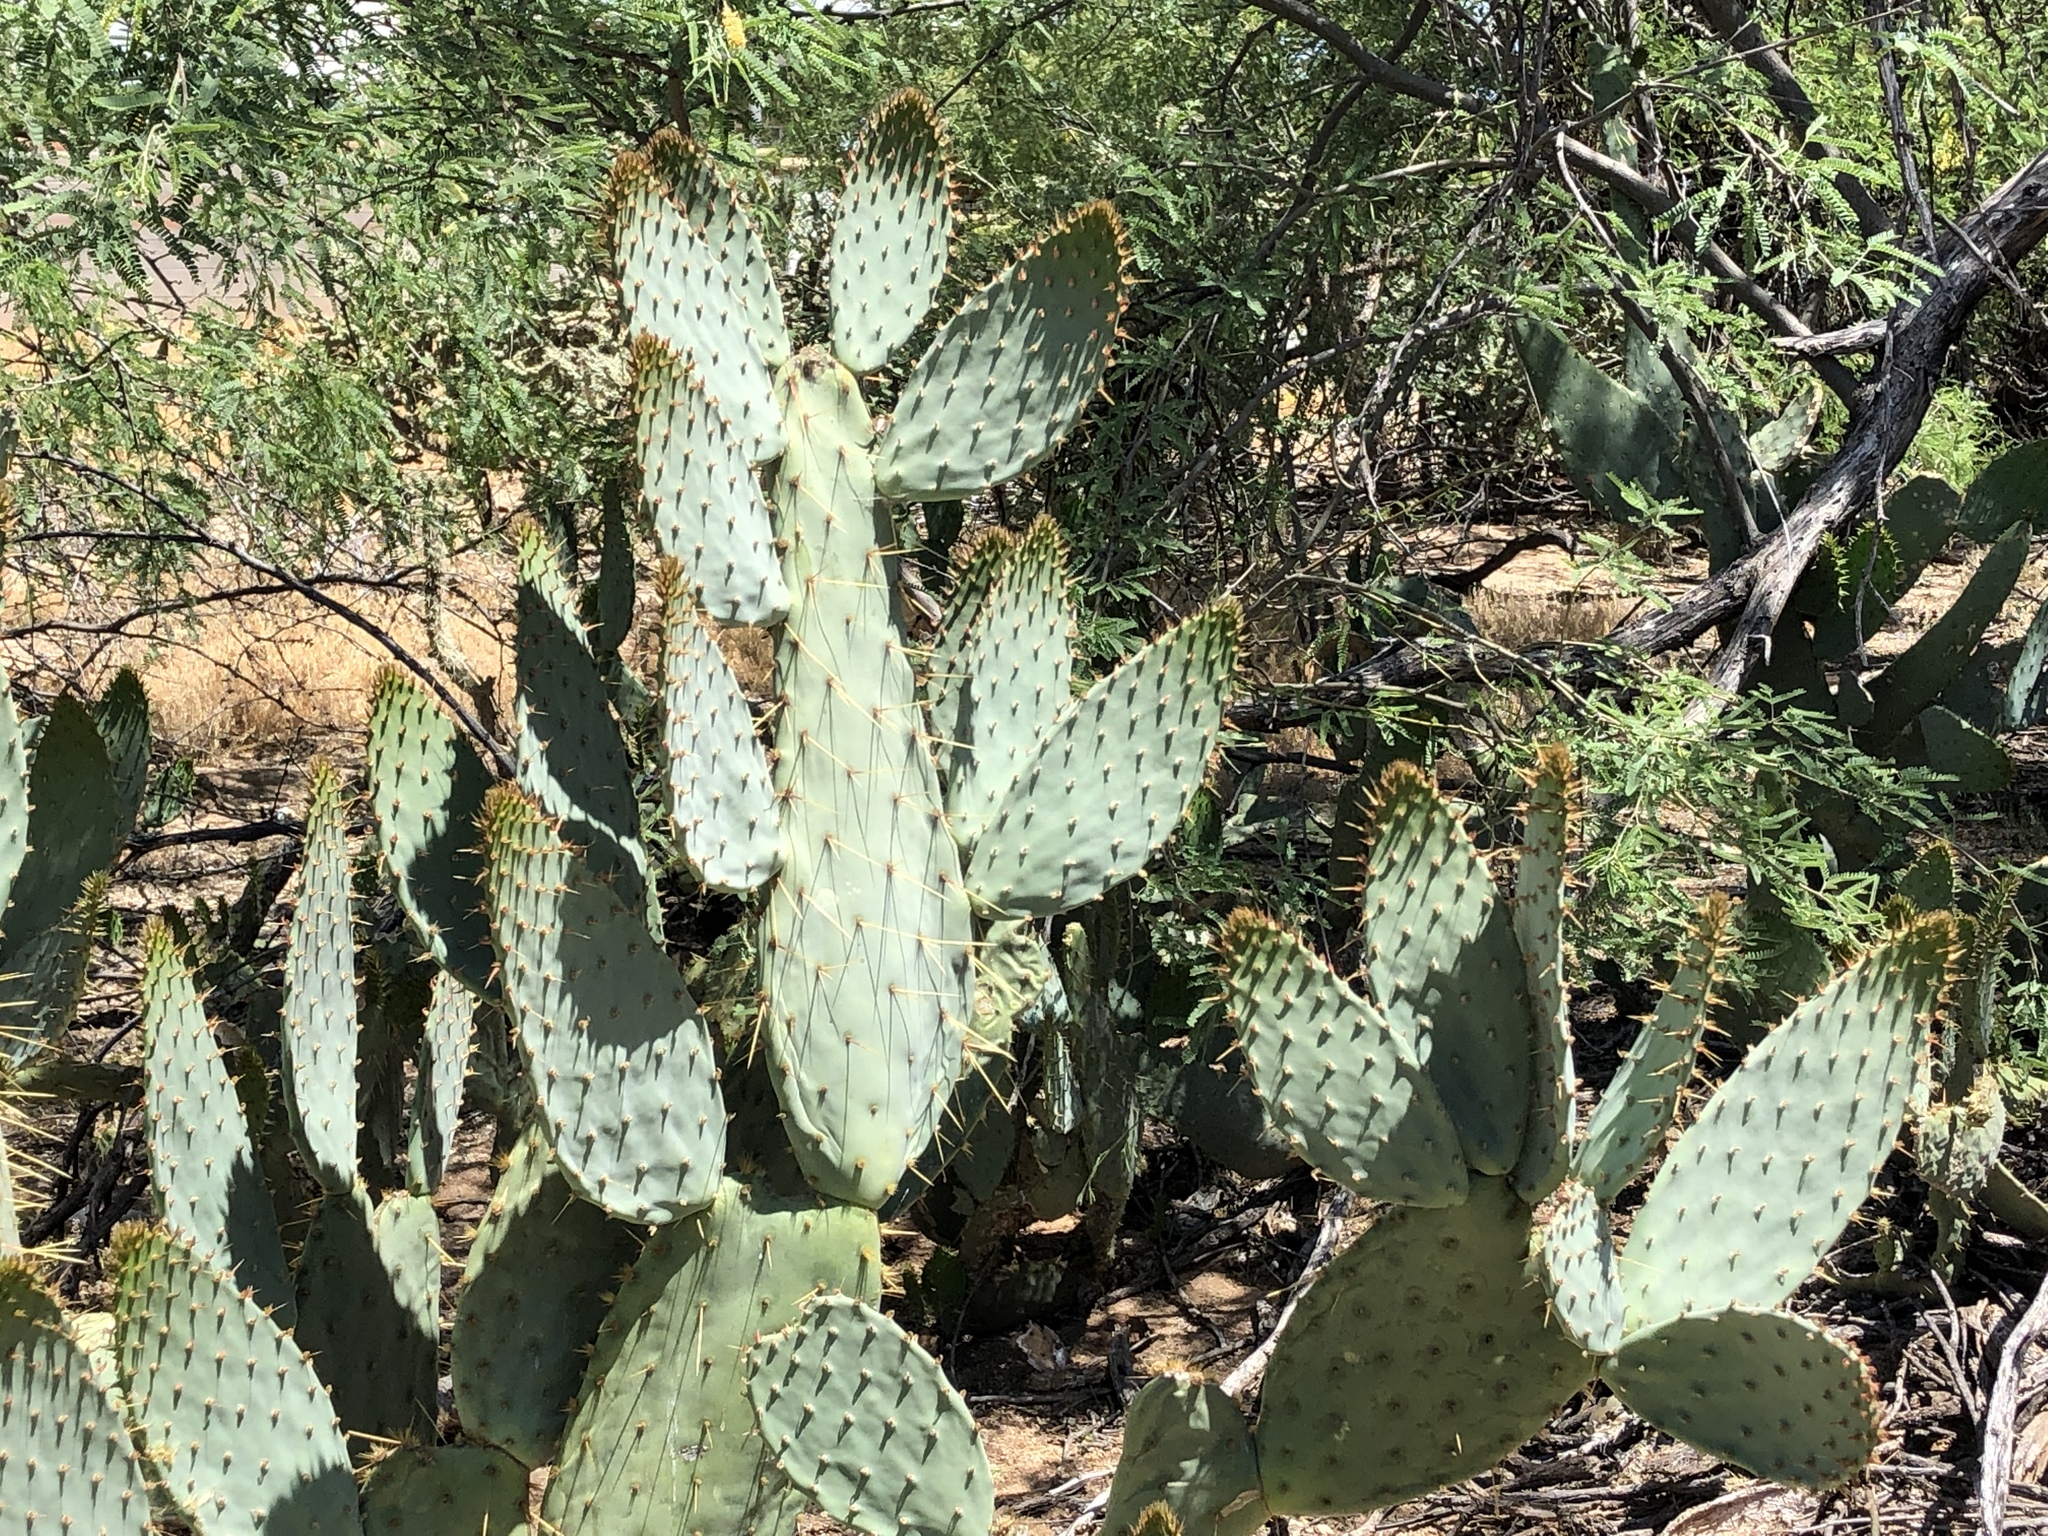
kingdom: Plantae
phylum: Tracheophyta
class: Magnoliopsida
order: Caryophyllales
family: Cactaceae
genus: Opuntia
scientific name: Opuntia engelmannii
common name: Cactus-apple
